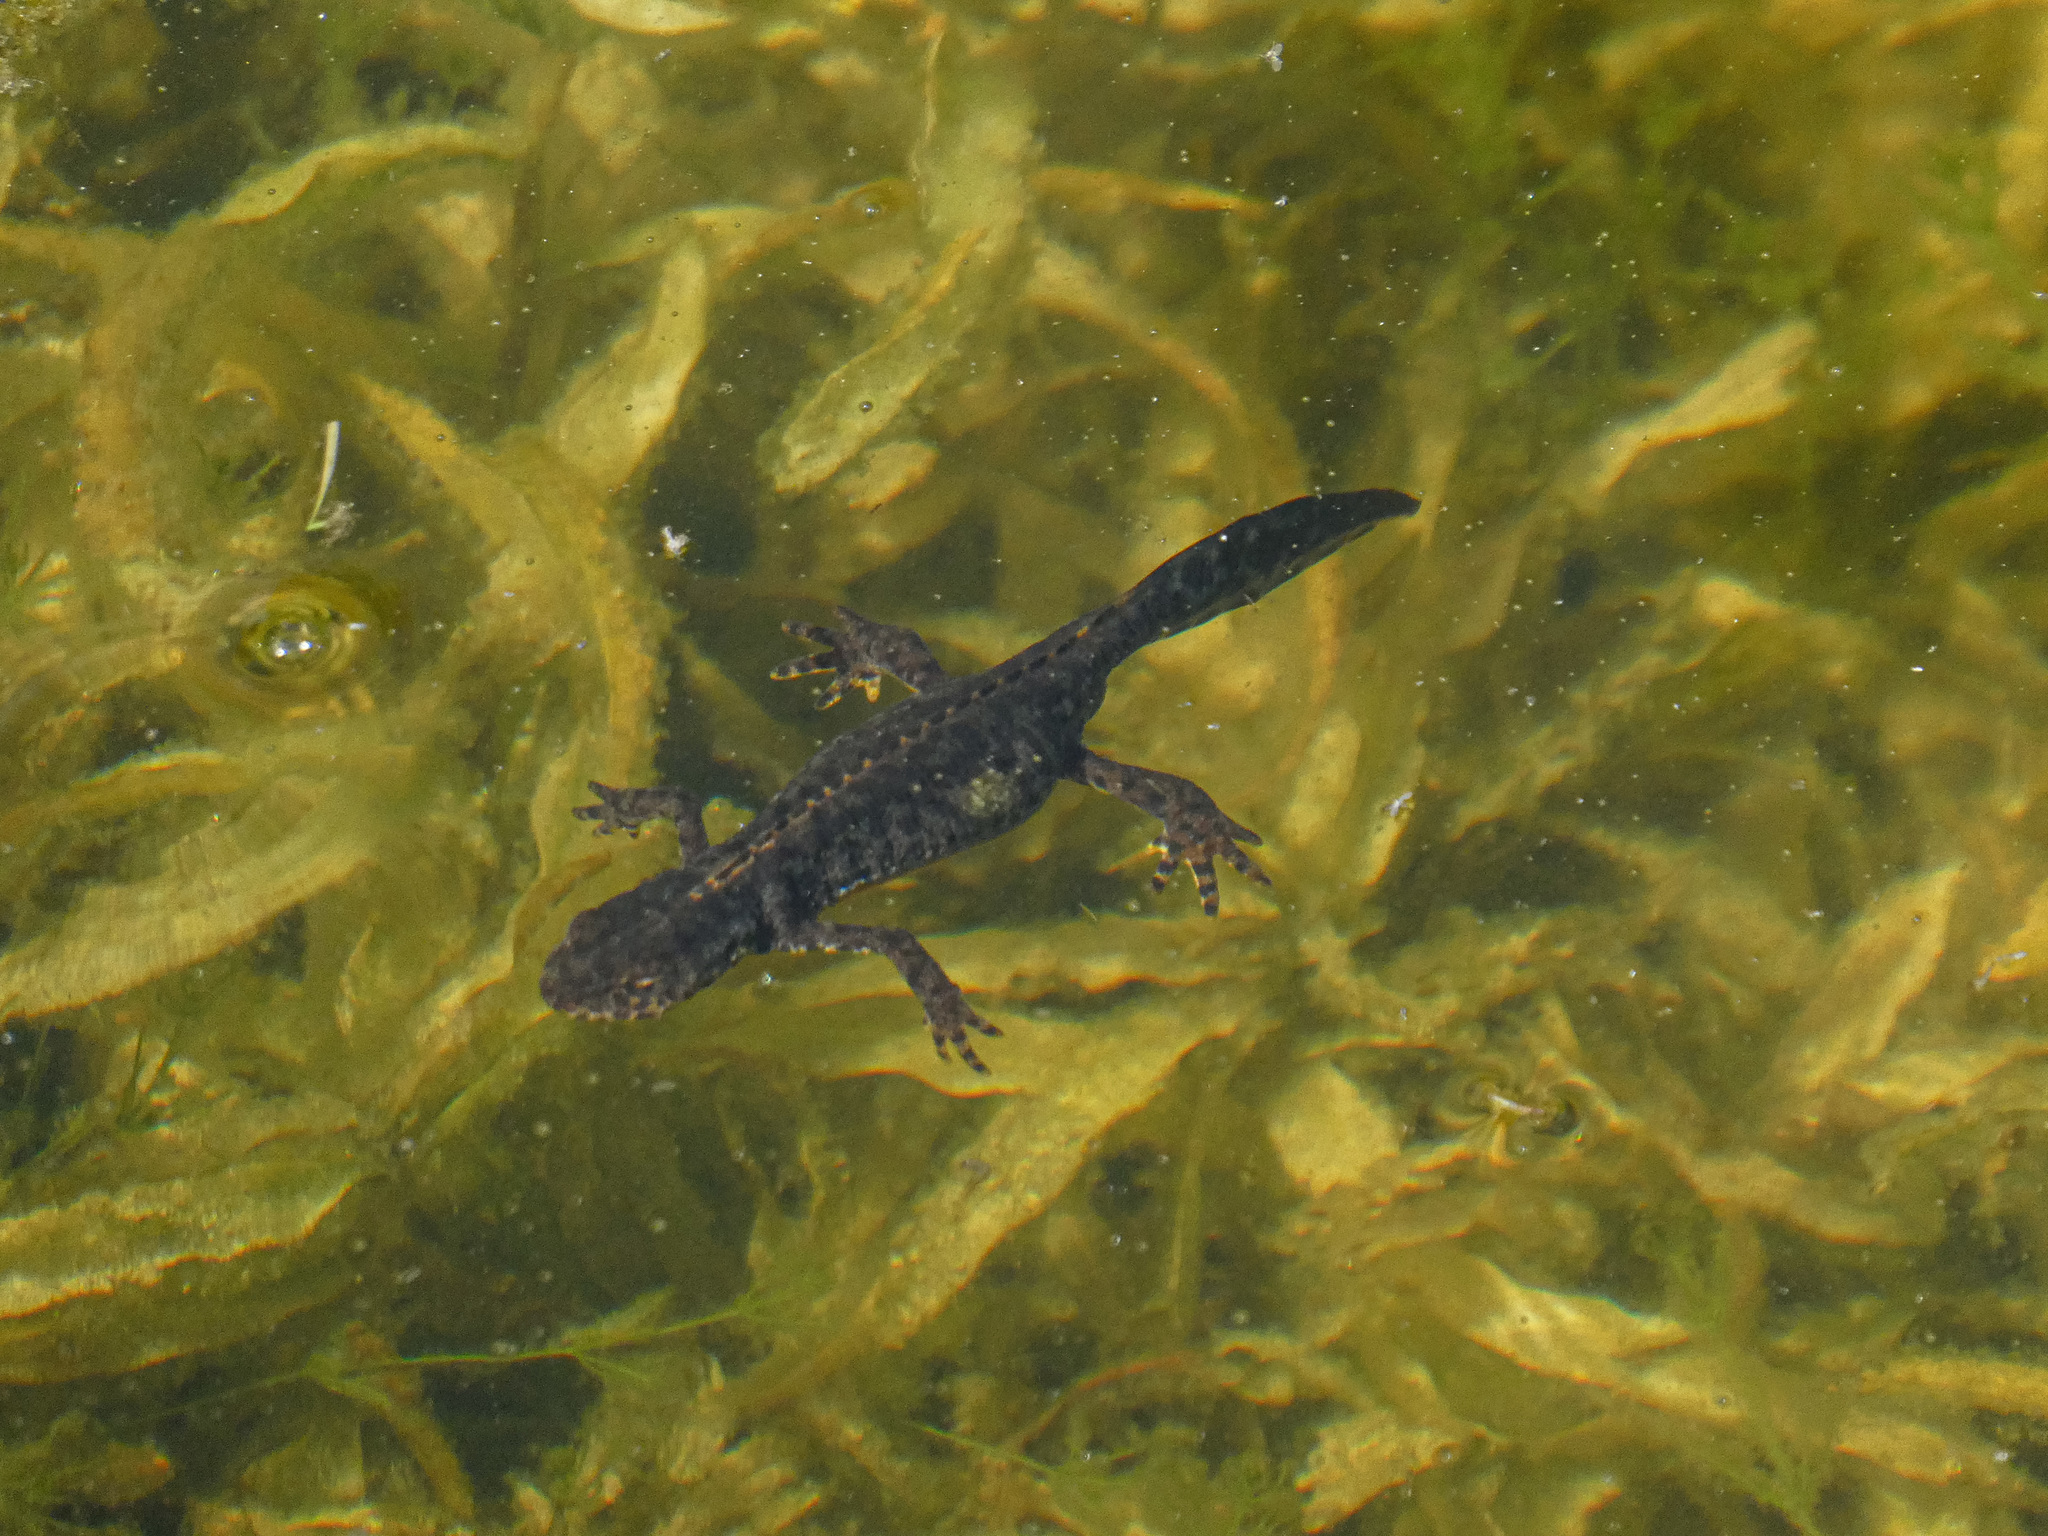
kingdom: Animalia
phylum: Chordata
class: Amphibia
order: Caudata
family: Salamandridae
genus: Ichthyosaura
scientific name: Ichthyosaura alpestris
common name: Alpine newt
